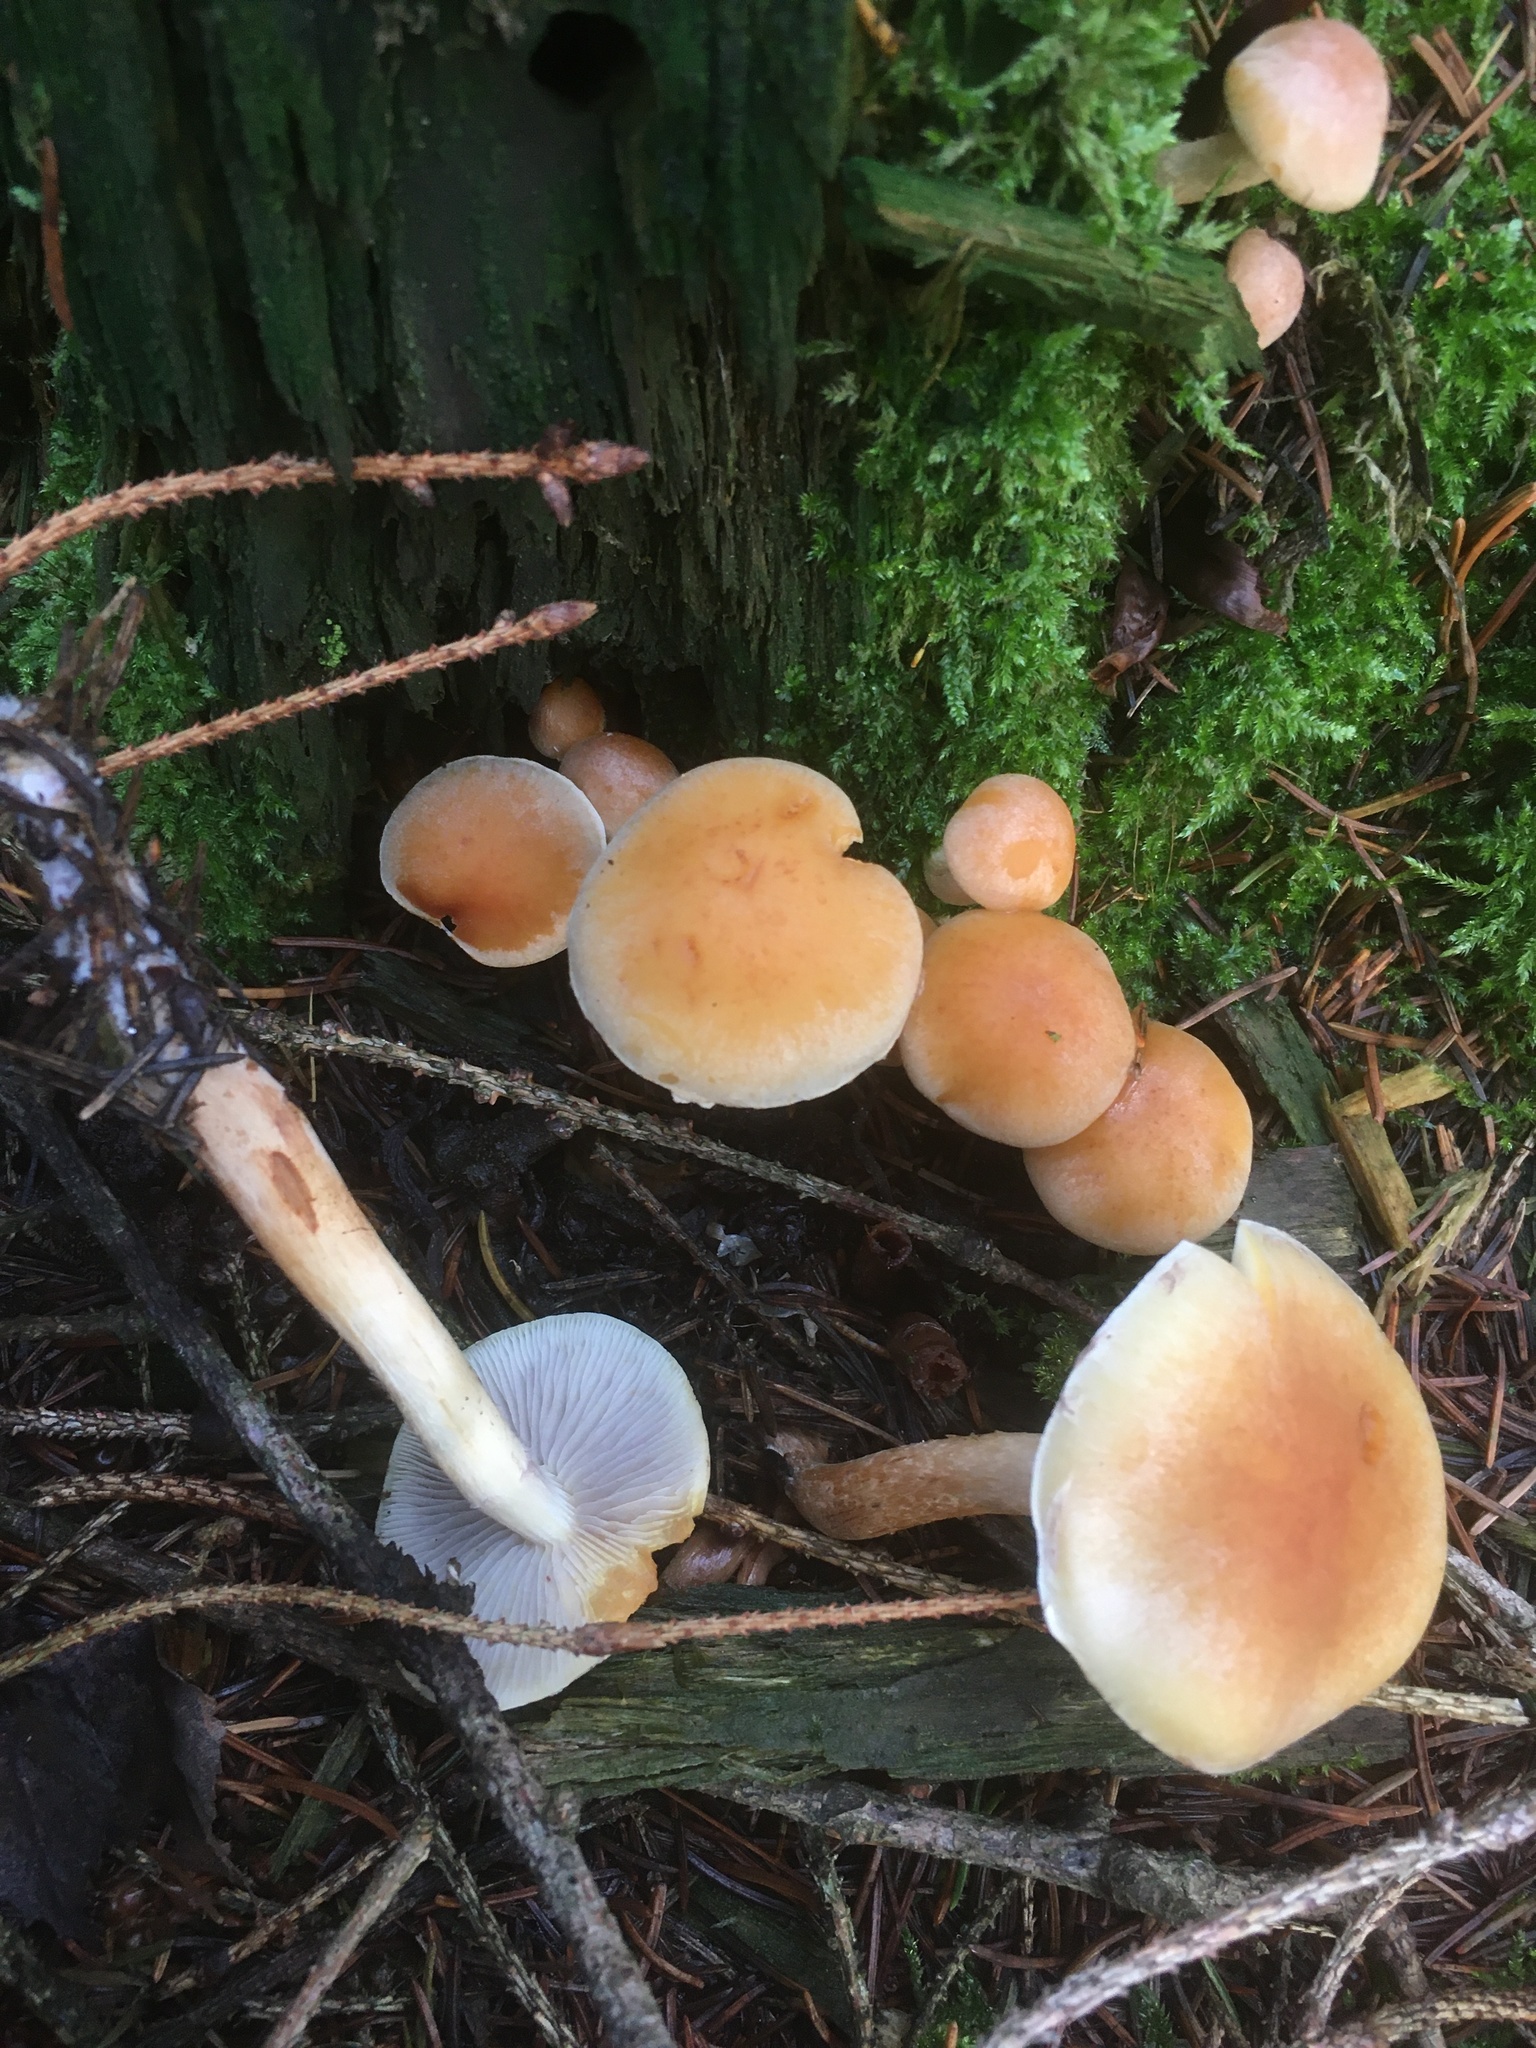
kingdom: Fungi
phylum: Basidiomycota
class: Agaricomycetes
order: Agaricales
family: Strophariaceae
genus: Hypholoma
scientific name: Hypholoma capnoides
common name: Conifer tuft
